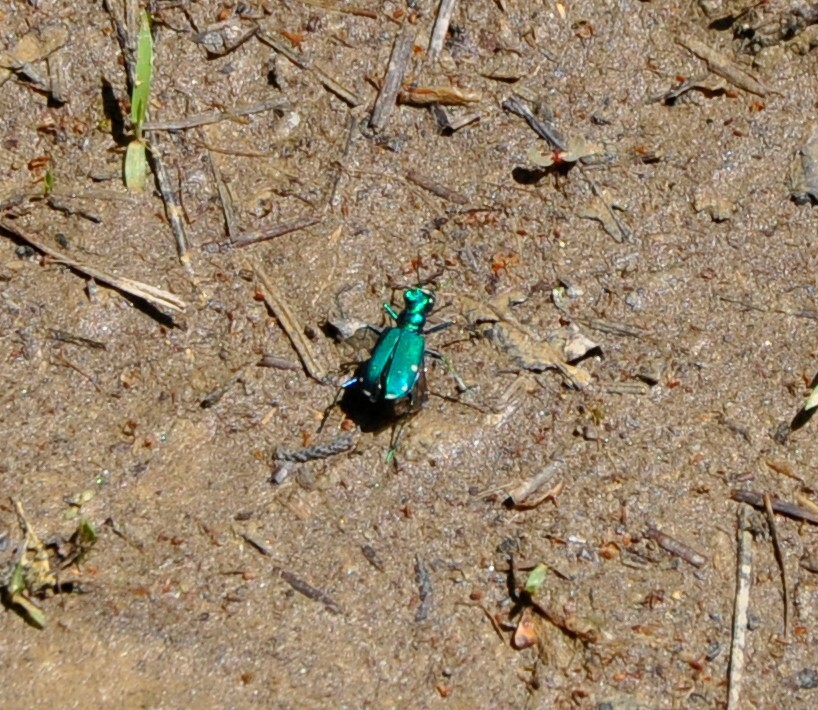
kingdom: Animalia
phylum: Arthropoda
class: Insecta
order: Coleoptera
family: Carabidae
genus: Cicindela
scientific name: Cicindela sexguttata
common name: Six-spotted tiger beetle
